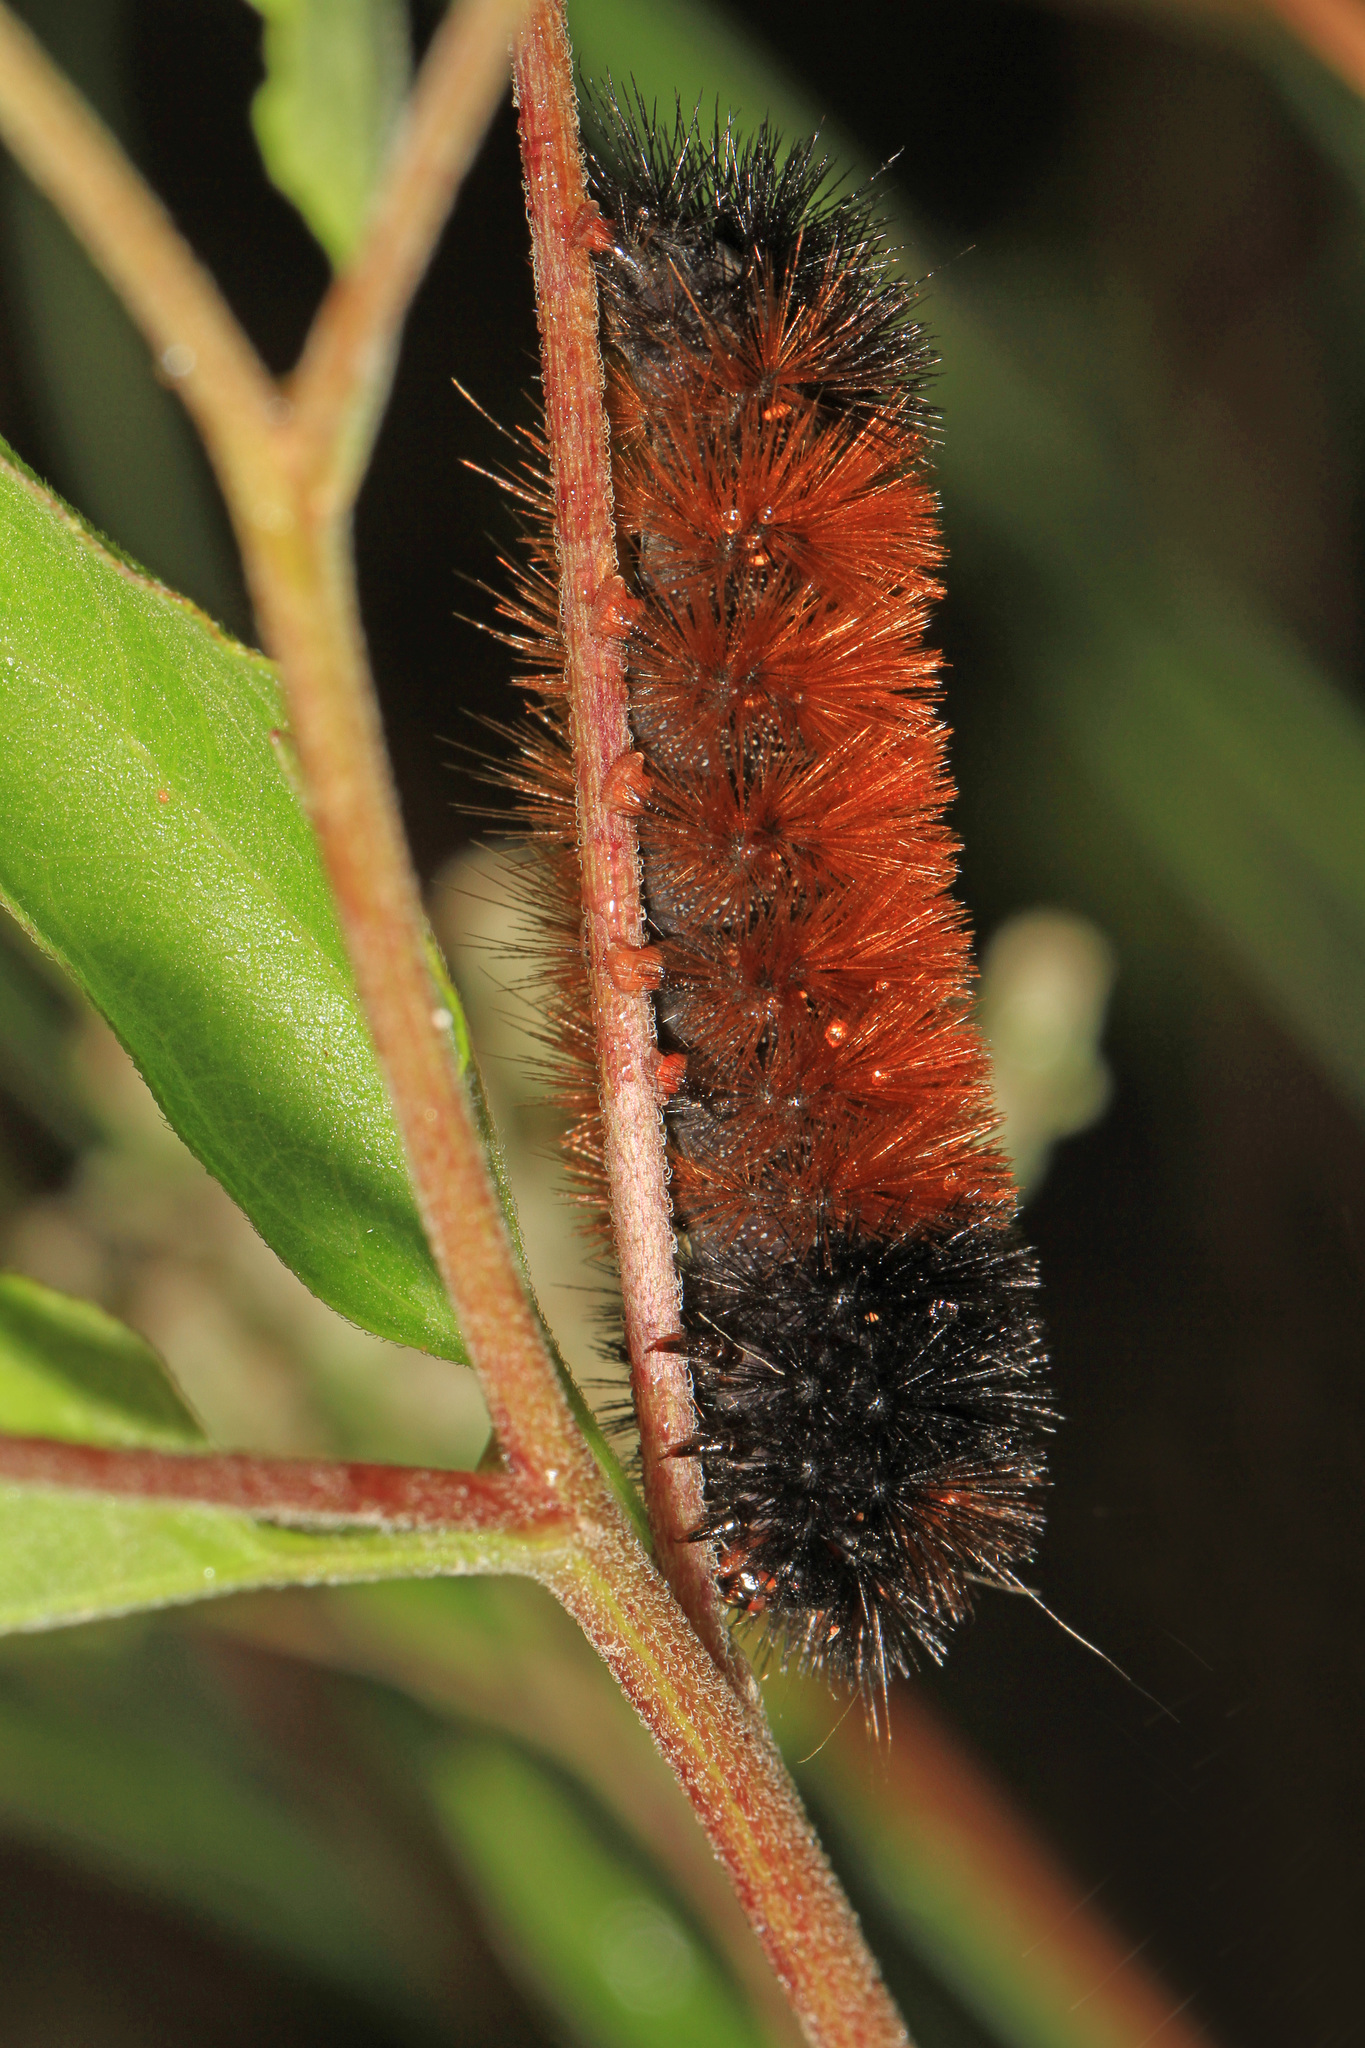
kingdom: Animalia
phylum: Arthropoda
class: Insecta
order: Lepidoptera
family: Erebidae
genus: Pyrrharctia
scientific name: Pyrrharctia isabella
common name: Isabella tiger moth
